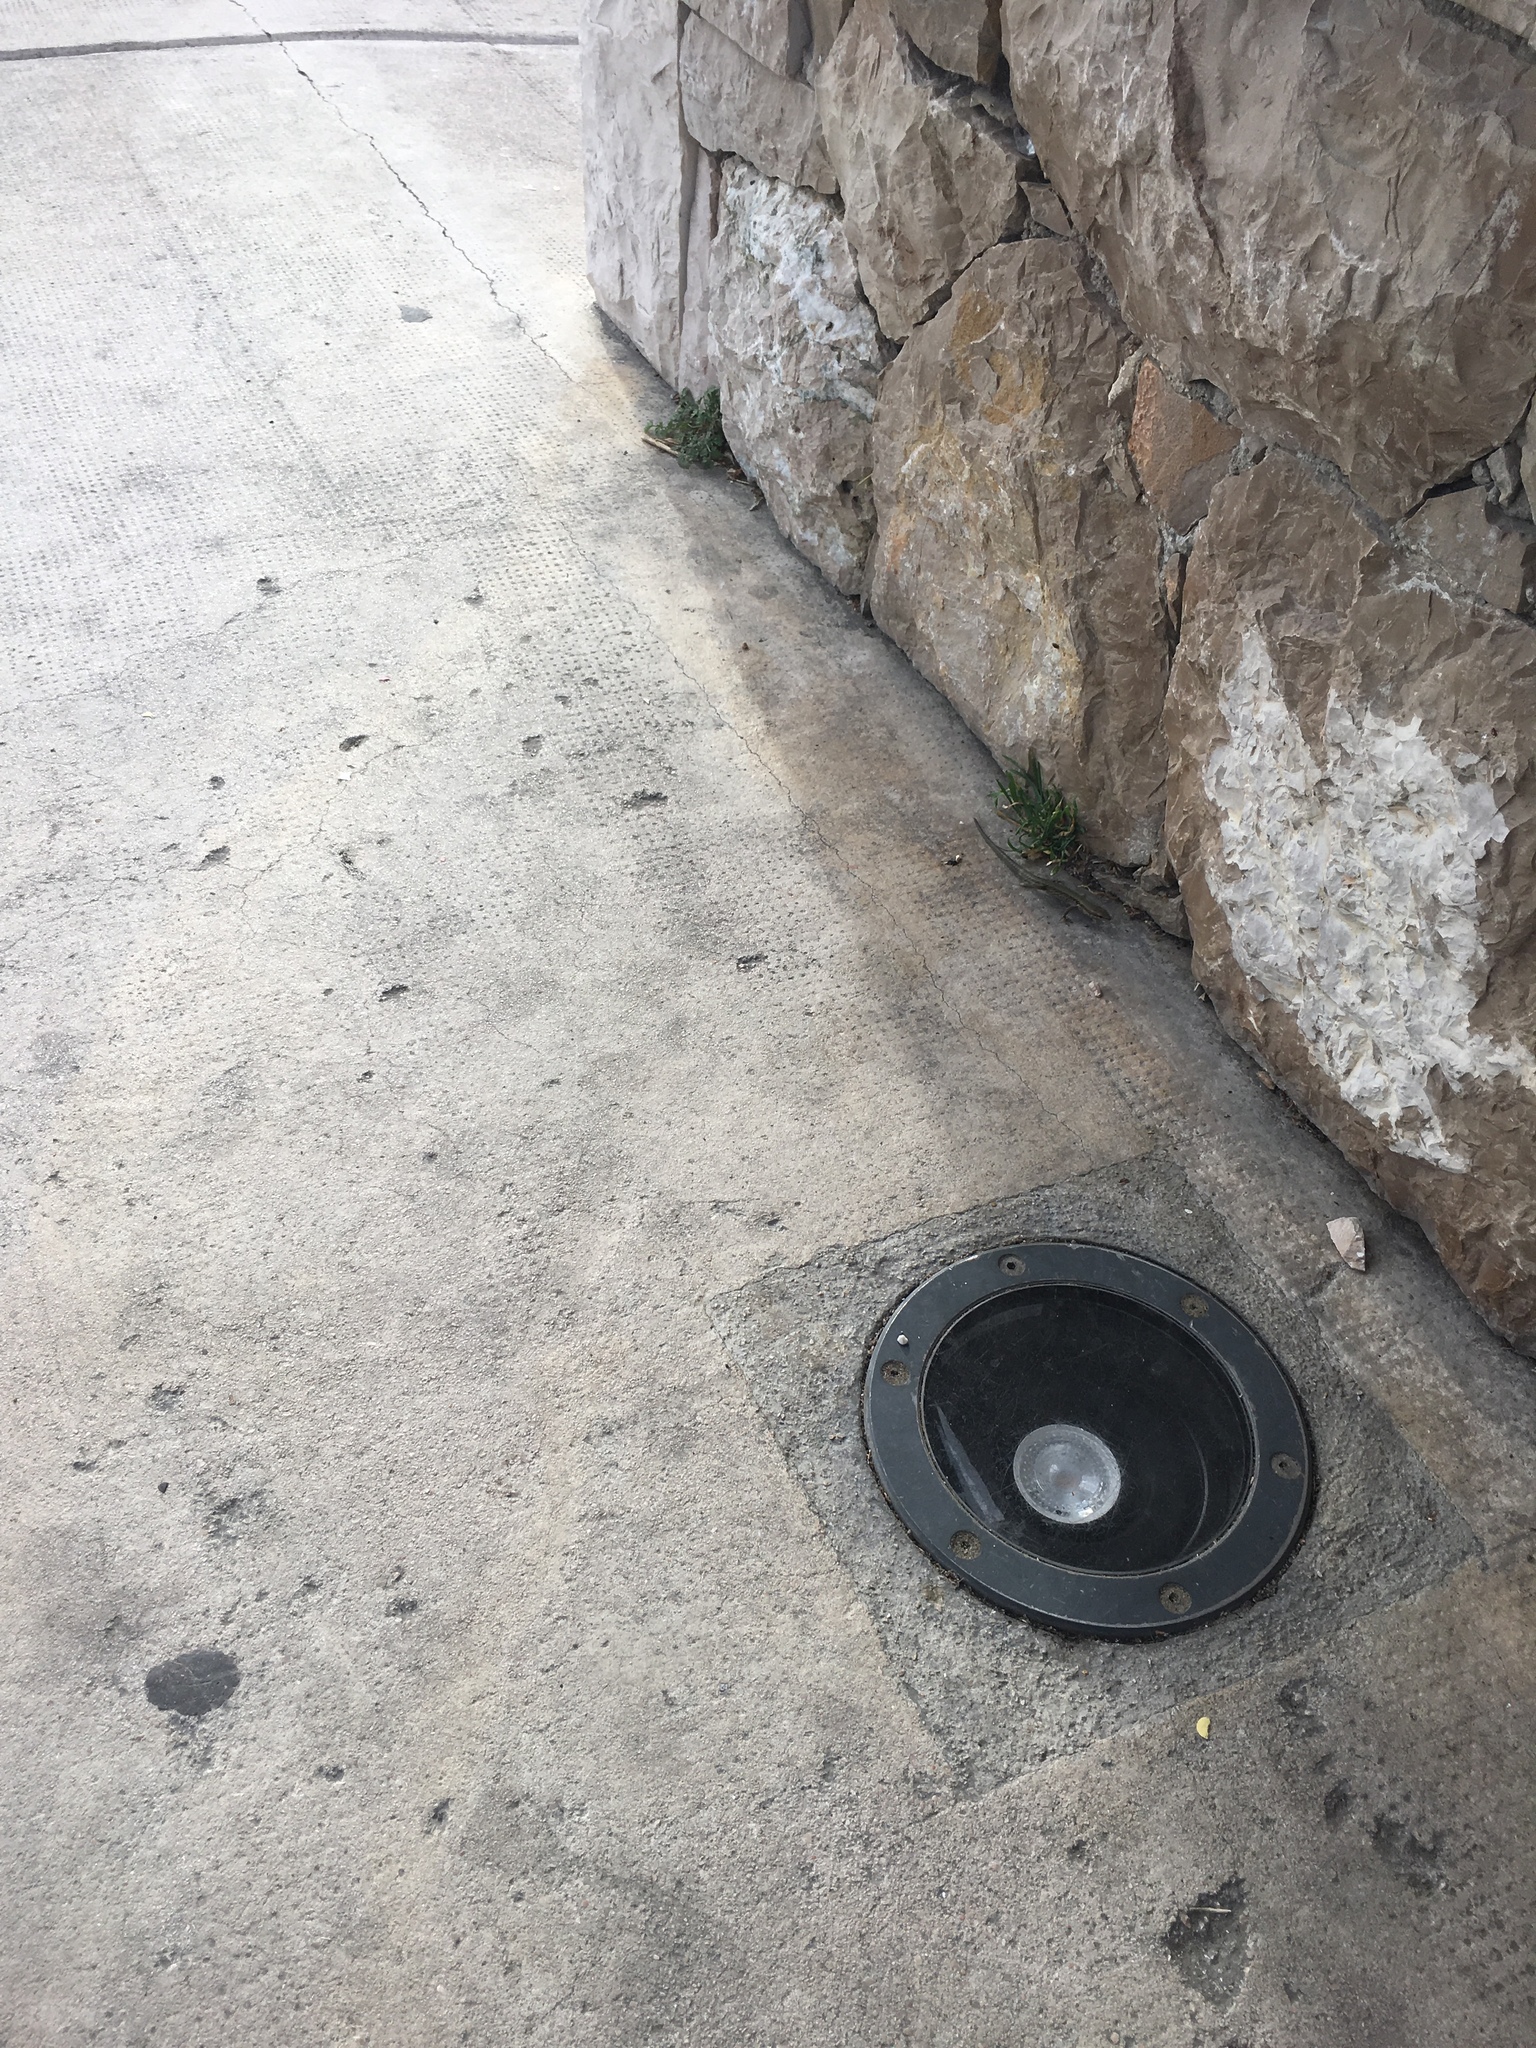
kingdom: Animalia
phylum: Chordata
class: Squamata
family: Lacertidae
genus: Podarcis
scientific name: Podarcis muralis
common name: Common wall lizard
